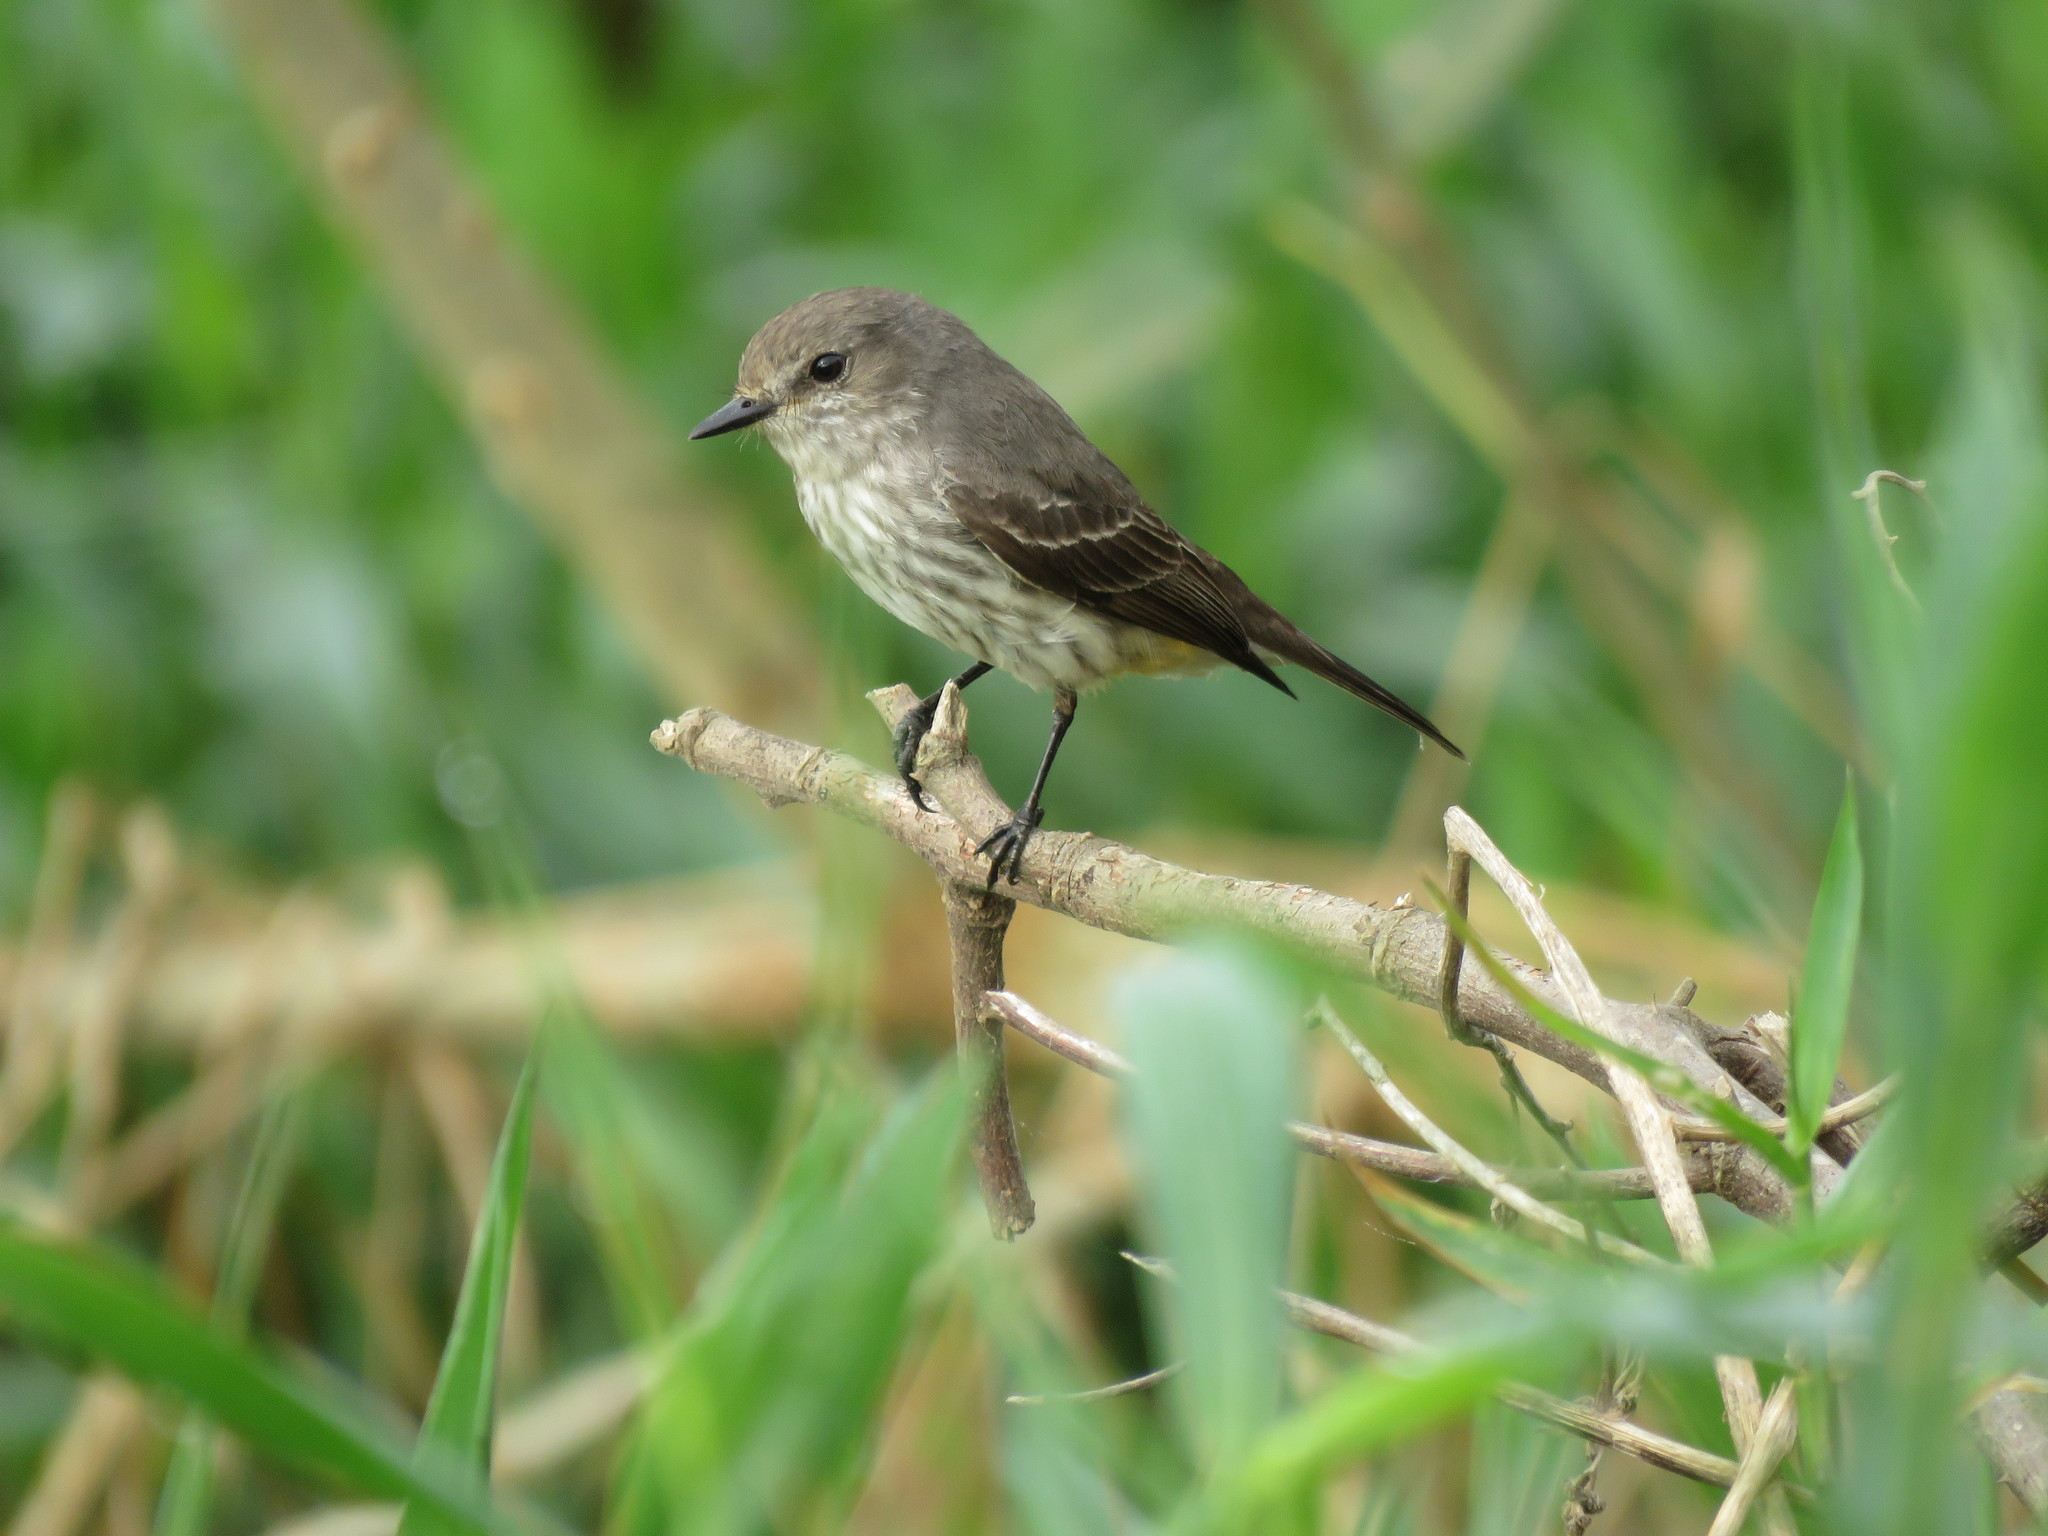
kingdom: Animalia
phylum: Chordata
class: Aves
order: Passeriformes
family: Tyrannidae
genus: Pyrocephalus
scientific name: Pyrocephalus rubinus
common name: Vermilion flycatcher
